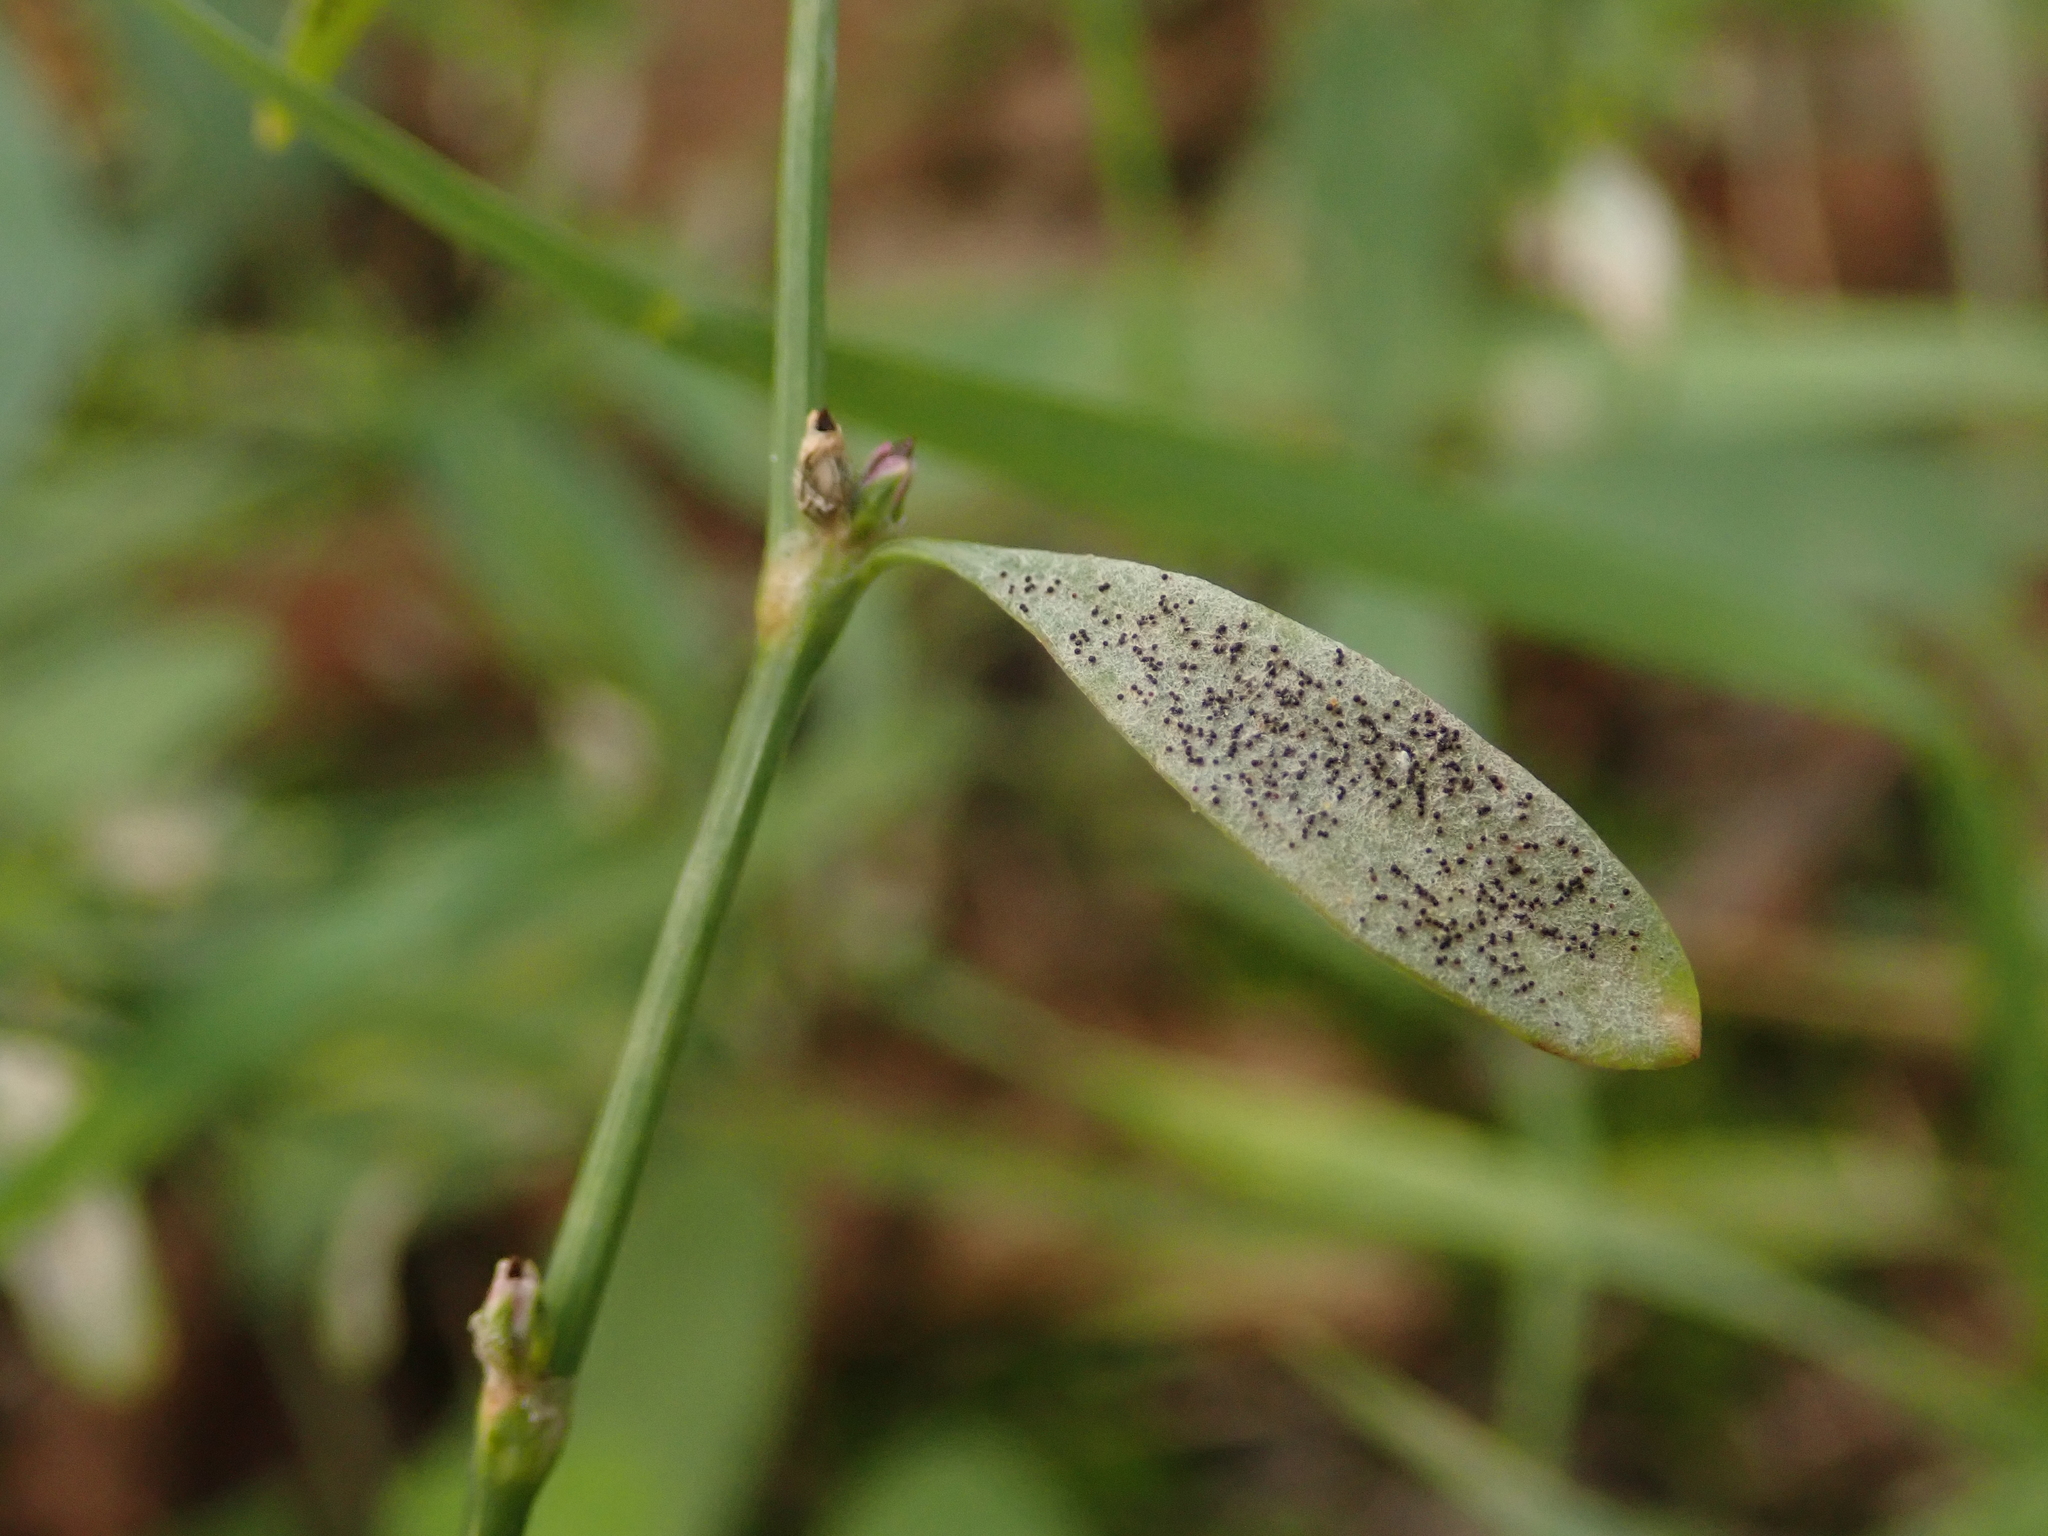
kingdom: Fungi
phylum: Ascomycota
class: Leotiomycetes
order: Helotiales
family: Erysiphaceae
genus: Erysiphe
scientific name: Erysiphe polygoni
